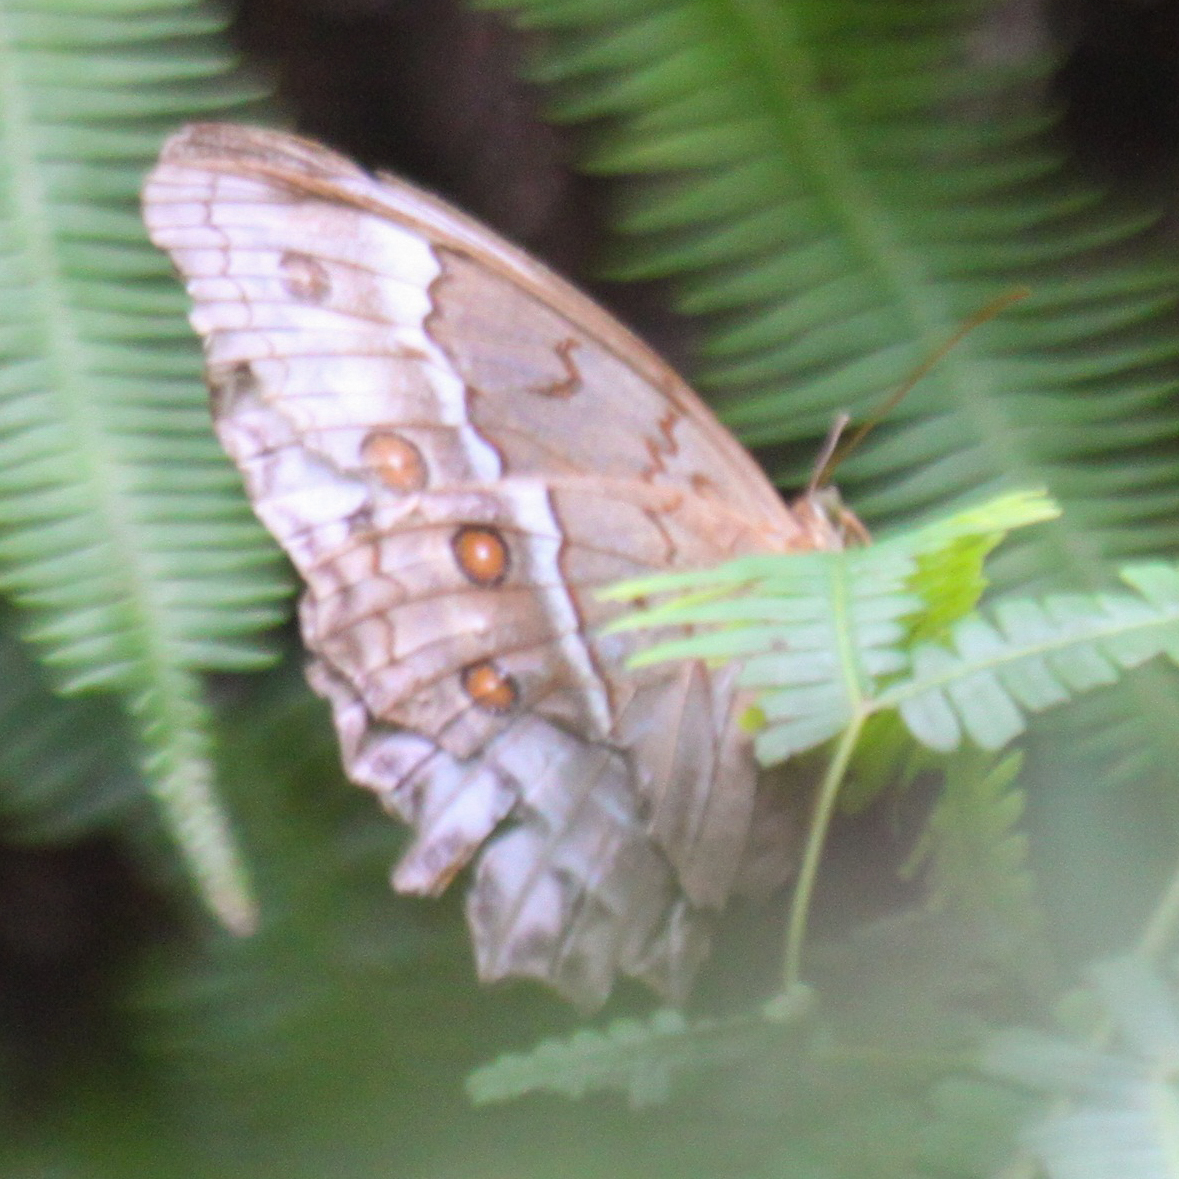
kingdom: Animalia
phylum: Arthropoda
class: Insecta
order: Lepidoptera
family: Nymphalidae
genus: Stichophthalma
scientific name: Stichophthalma cambodia
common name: Cambodian junglequeen
